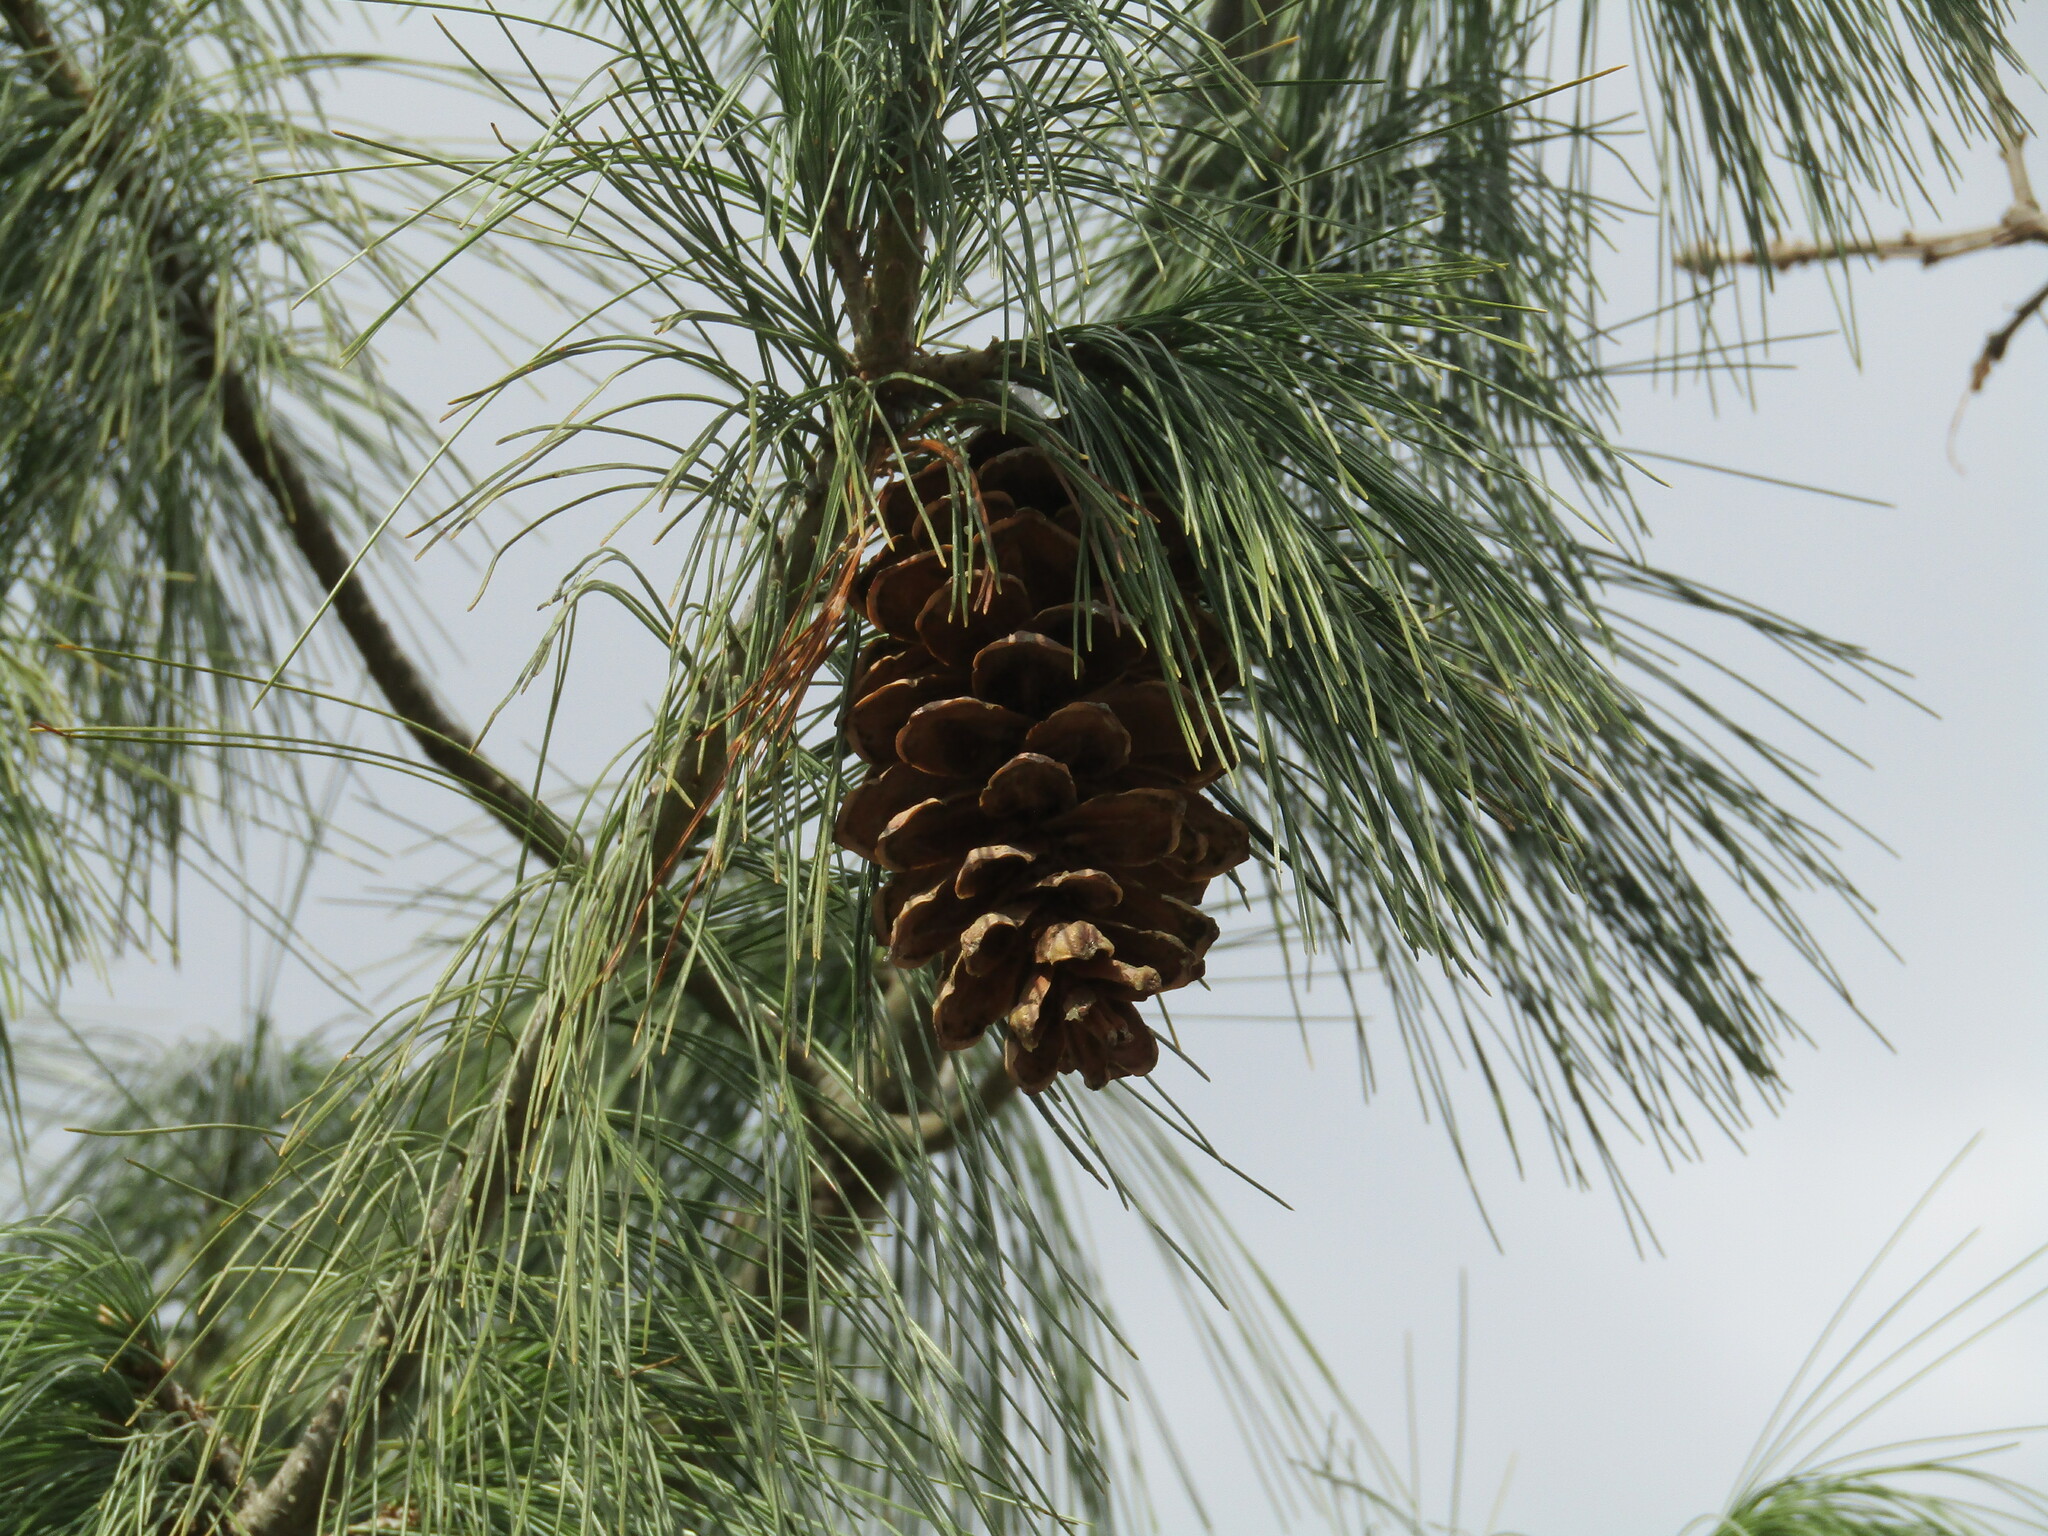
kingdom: Plantae
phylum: Tracheophyta
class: Pinopsida
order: Pinales
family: Pinaceae
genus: Pinus
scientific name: Pinus strobus
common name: Weymouth pine
